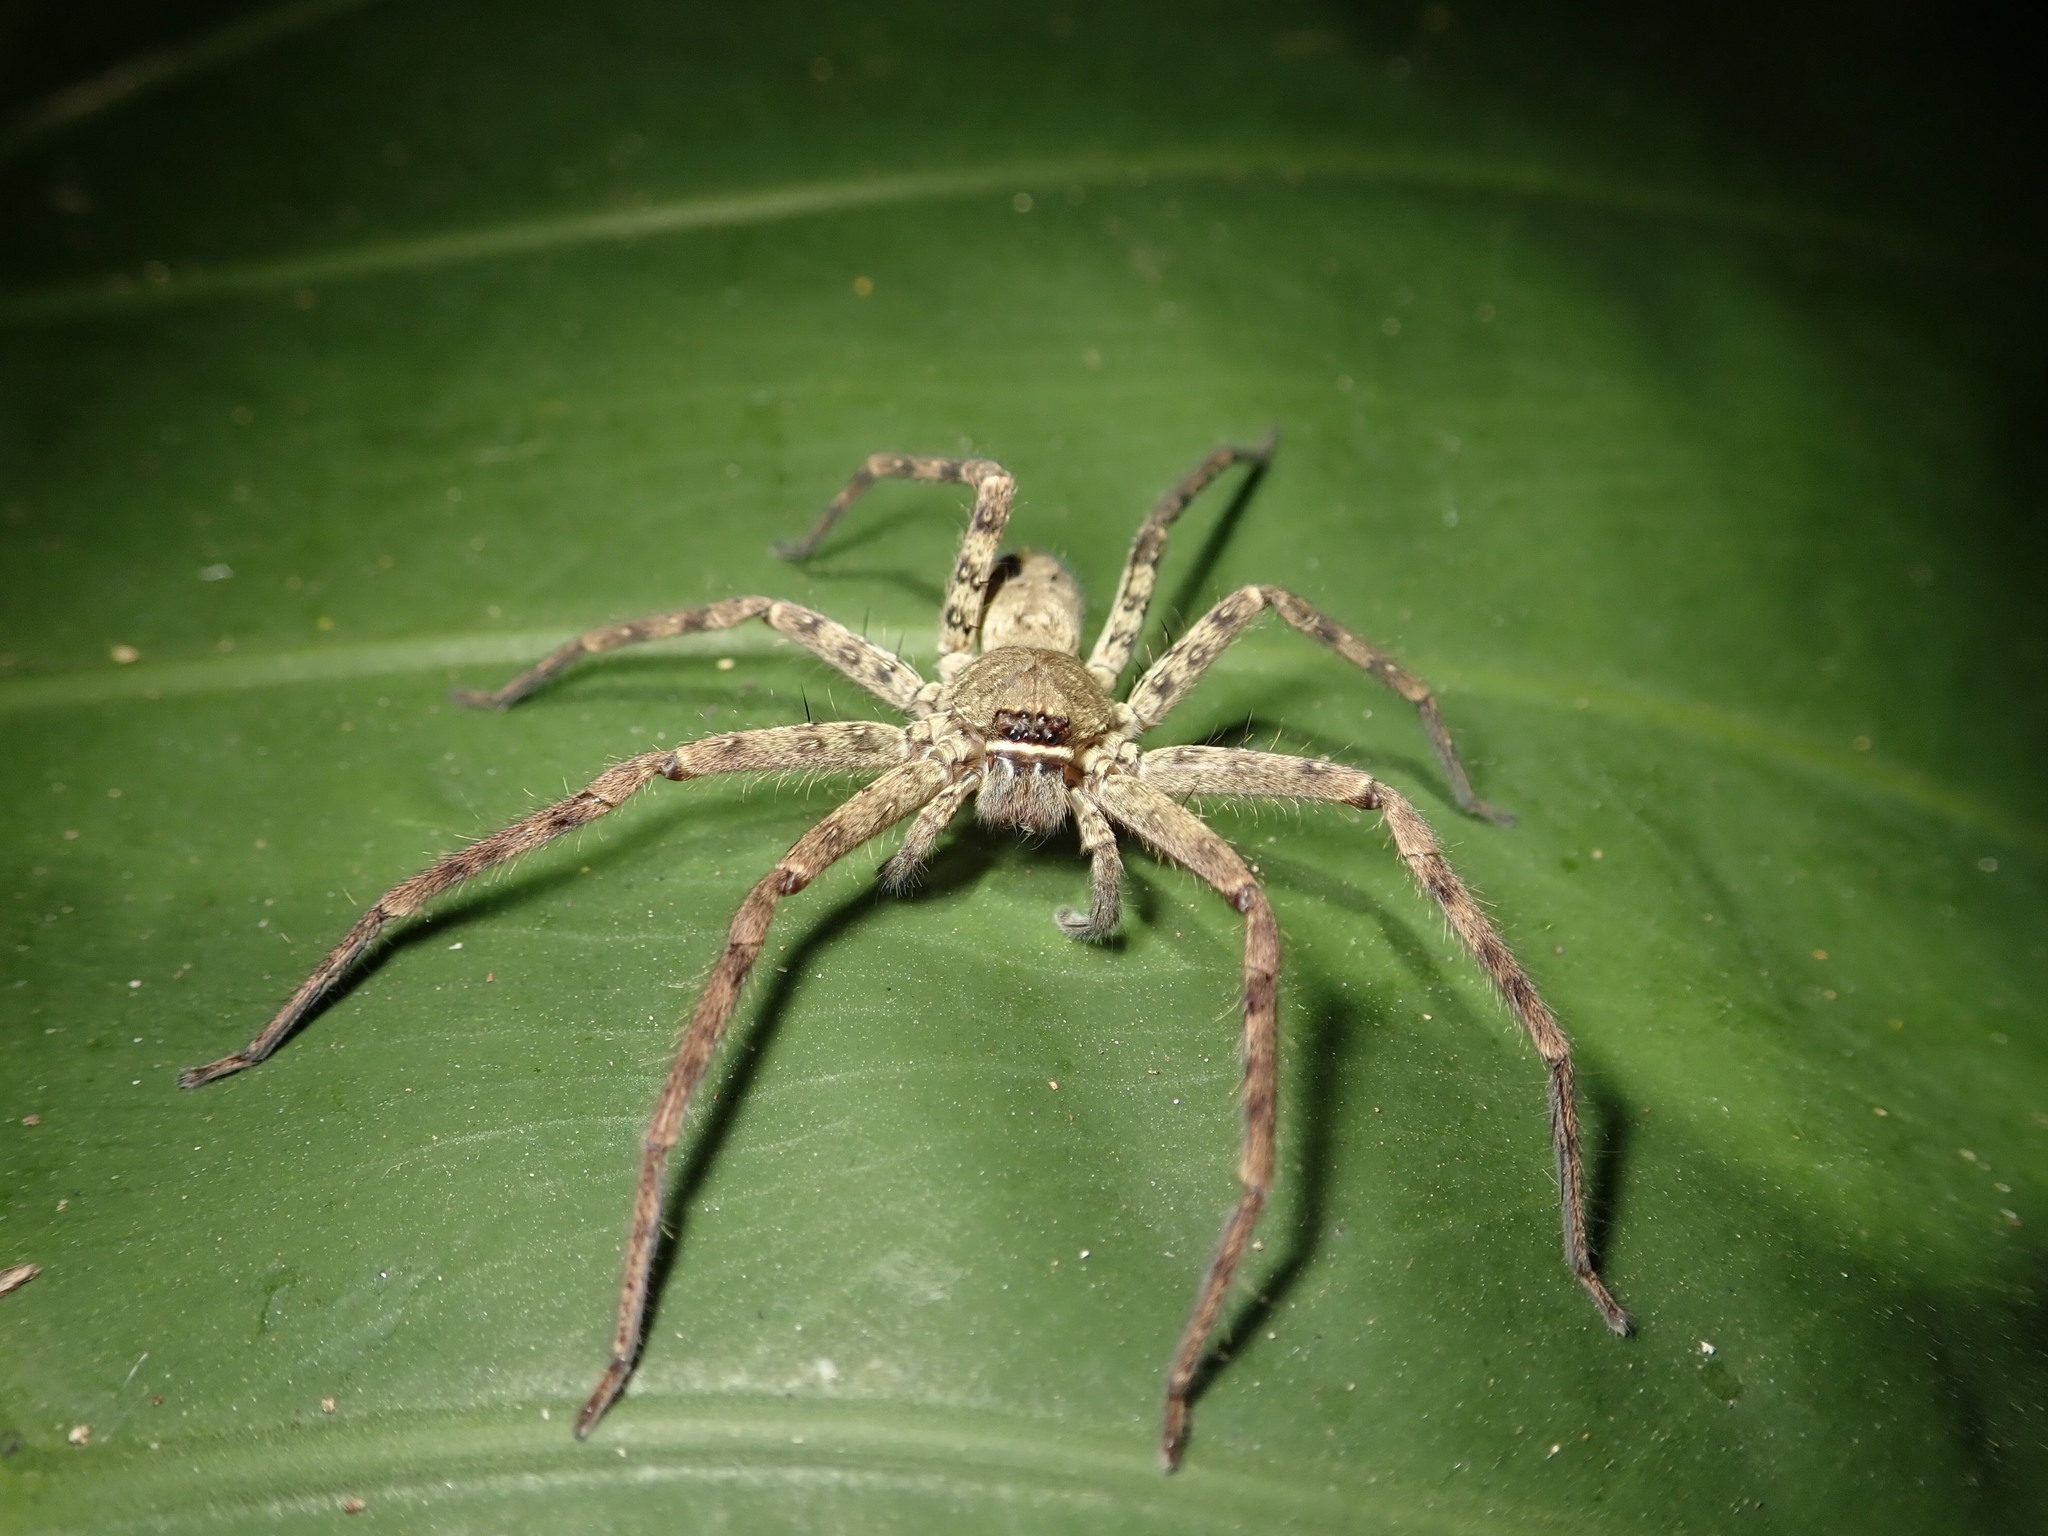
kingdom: Animalia
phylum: Arthropoda
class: Arachnida
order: Araneae
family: Sparassidae
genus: Heteropoda
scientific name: Heteropoda venatoria
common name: Huntsman spider
